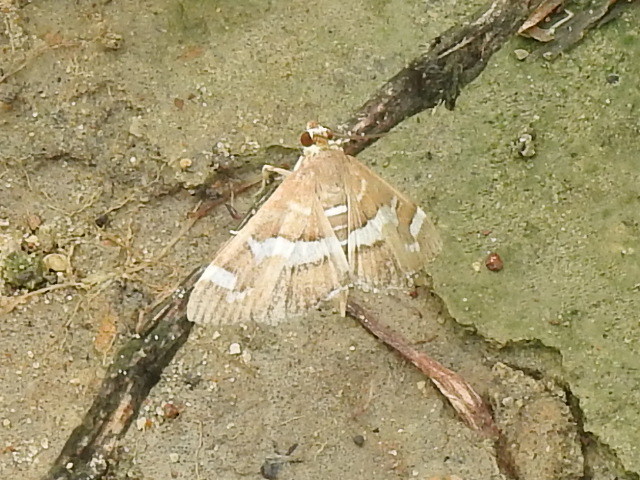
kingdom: Animalia
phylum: Arthropoda
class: Insecta
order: Lepidoptera
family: Crambidae
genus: Spoladea
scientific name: Spoladea recurvalis
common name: Beet webworm moth
